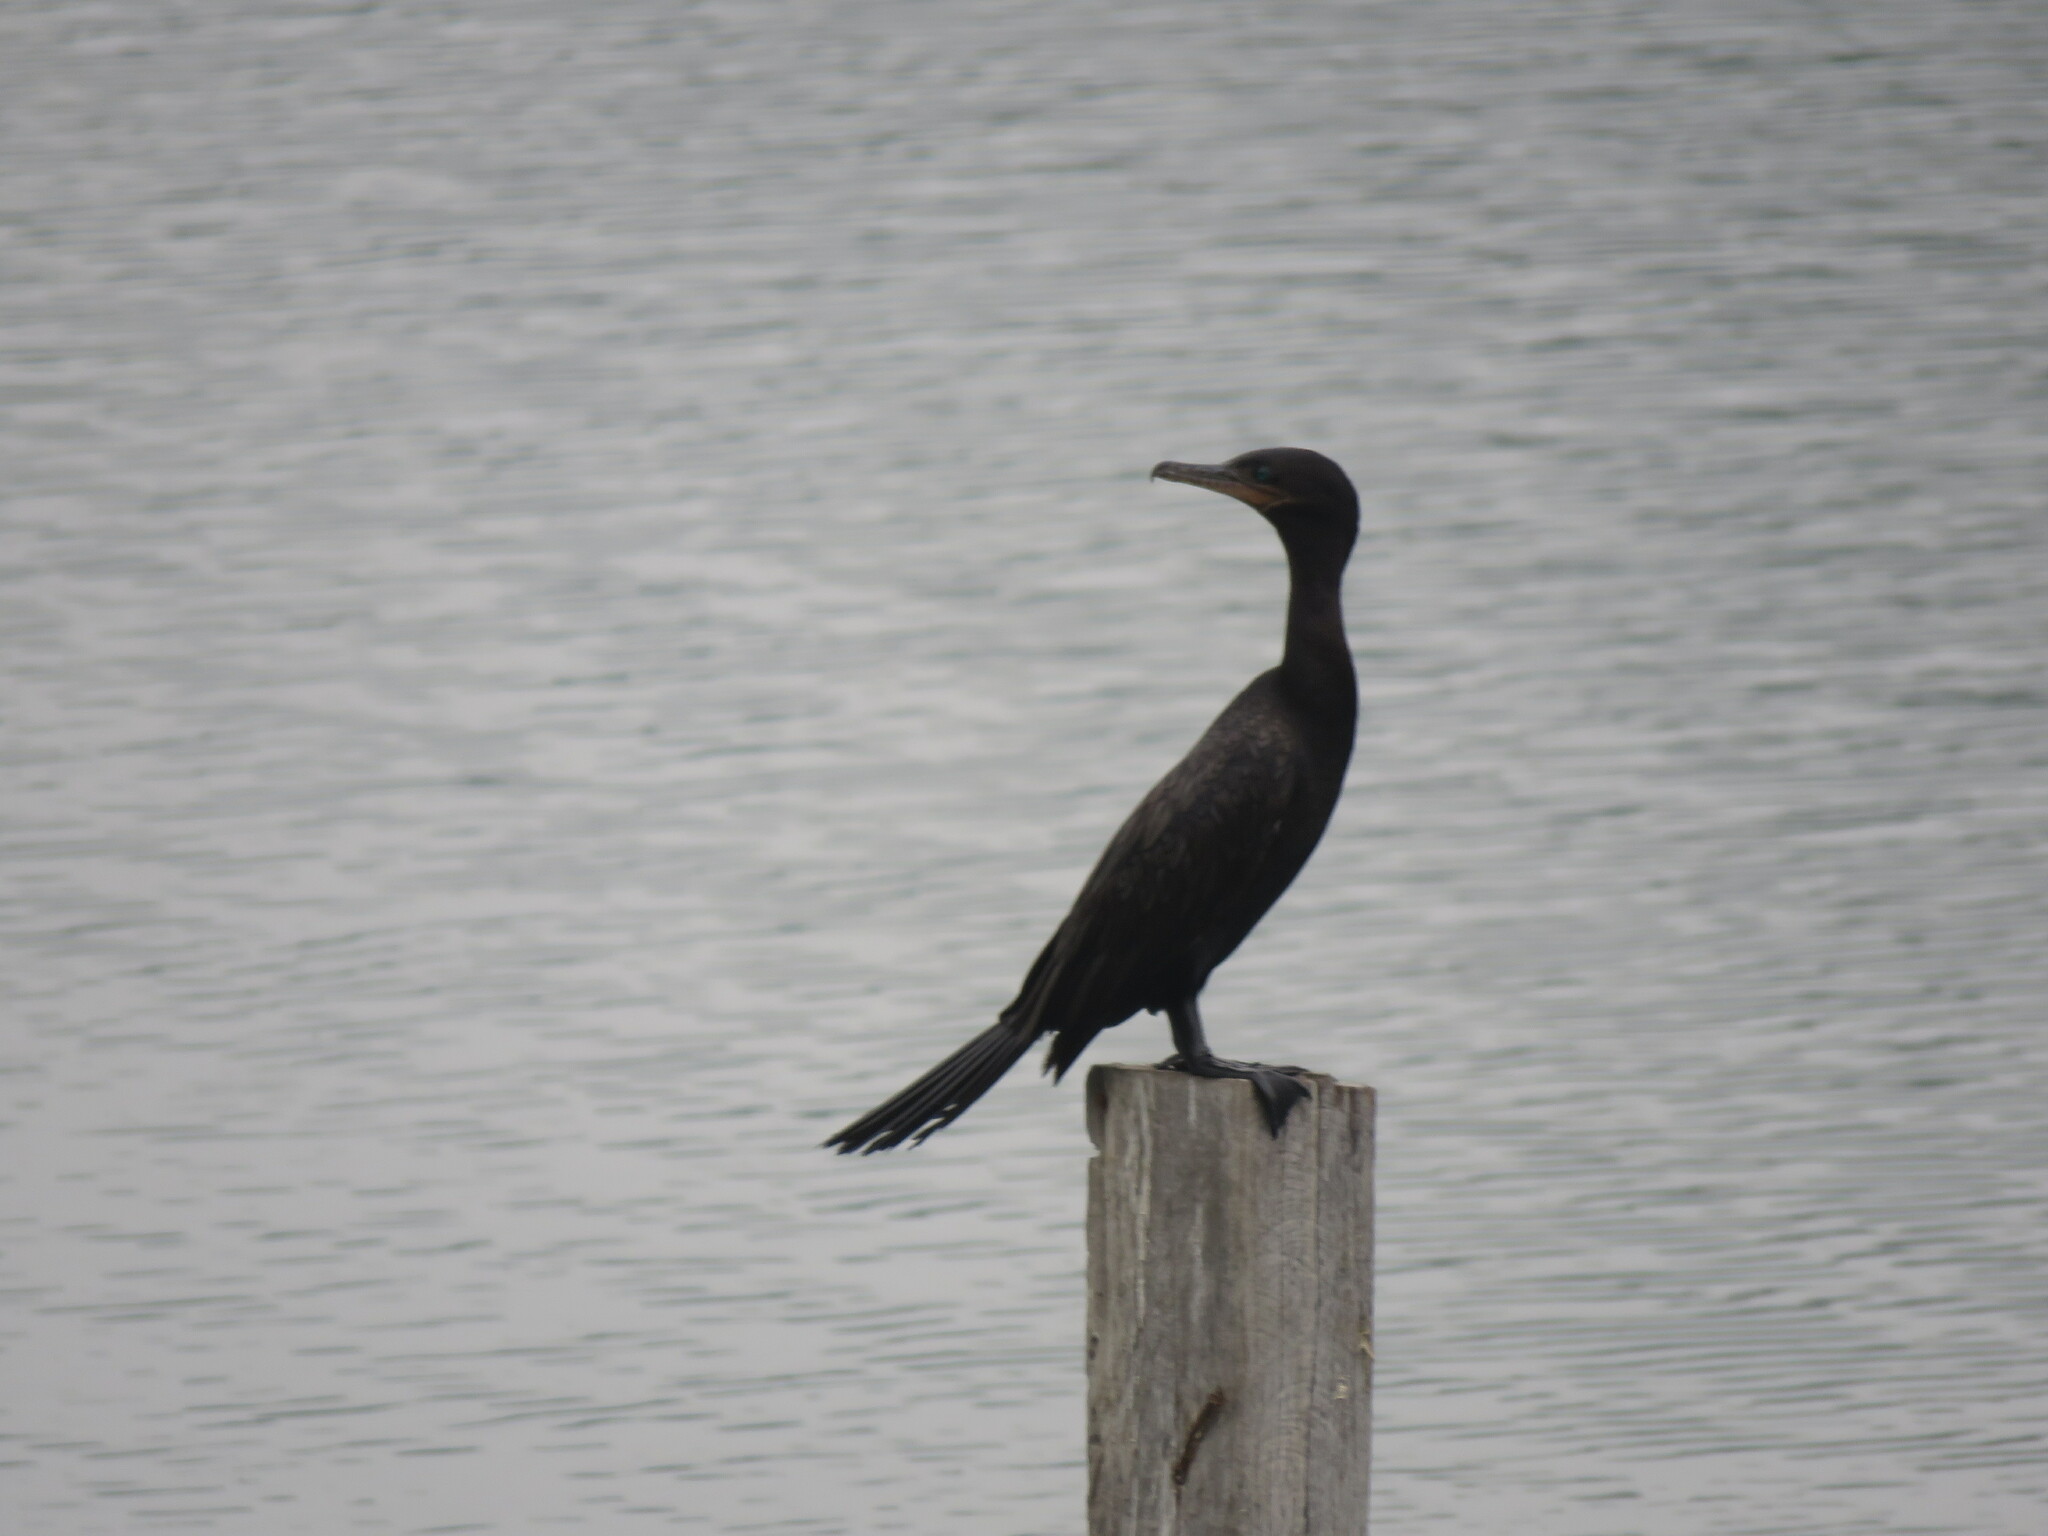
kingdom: Animalia
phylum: Chordata
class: Aves
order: Suliformes
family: Phalacrocoracidae
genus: Phalacrocorax
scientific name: Phalacrocorax brasilianus
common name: Neotropic cormorant
